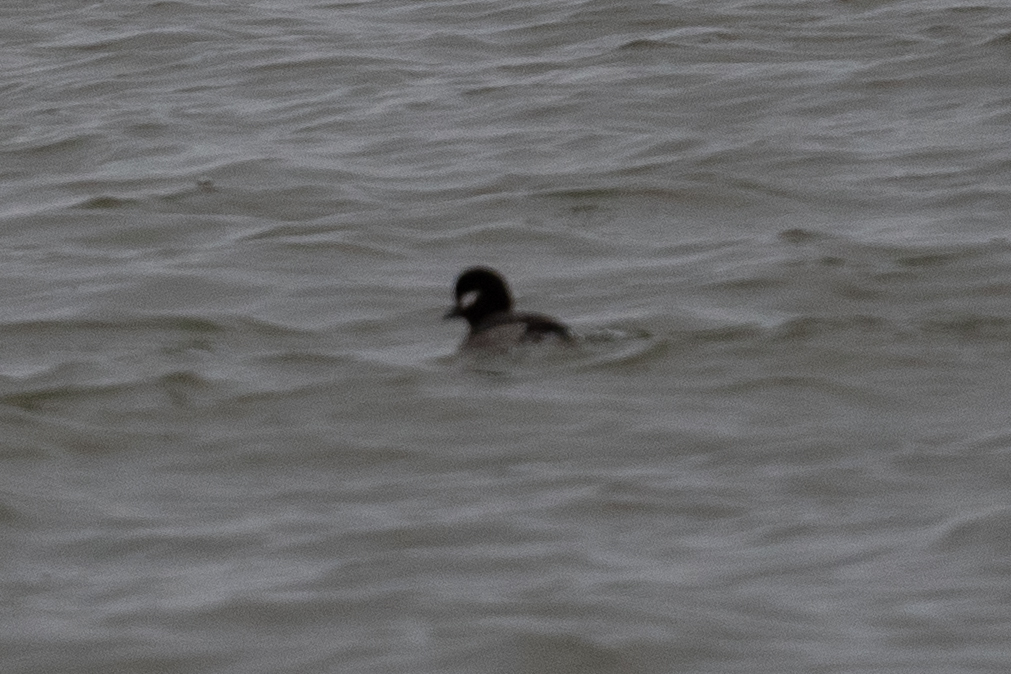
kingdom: Animalia
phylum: Chordata
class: Aves
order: Anseriformes
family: Anatidae
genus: Bucephala
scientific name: Bucephala albeola
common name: Bufflehead
